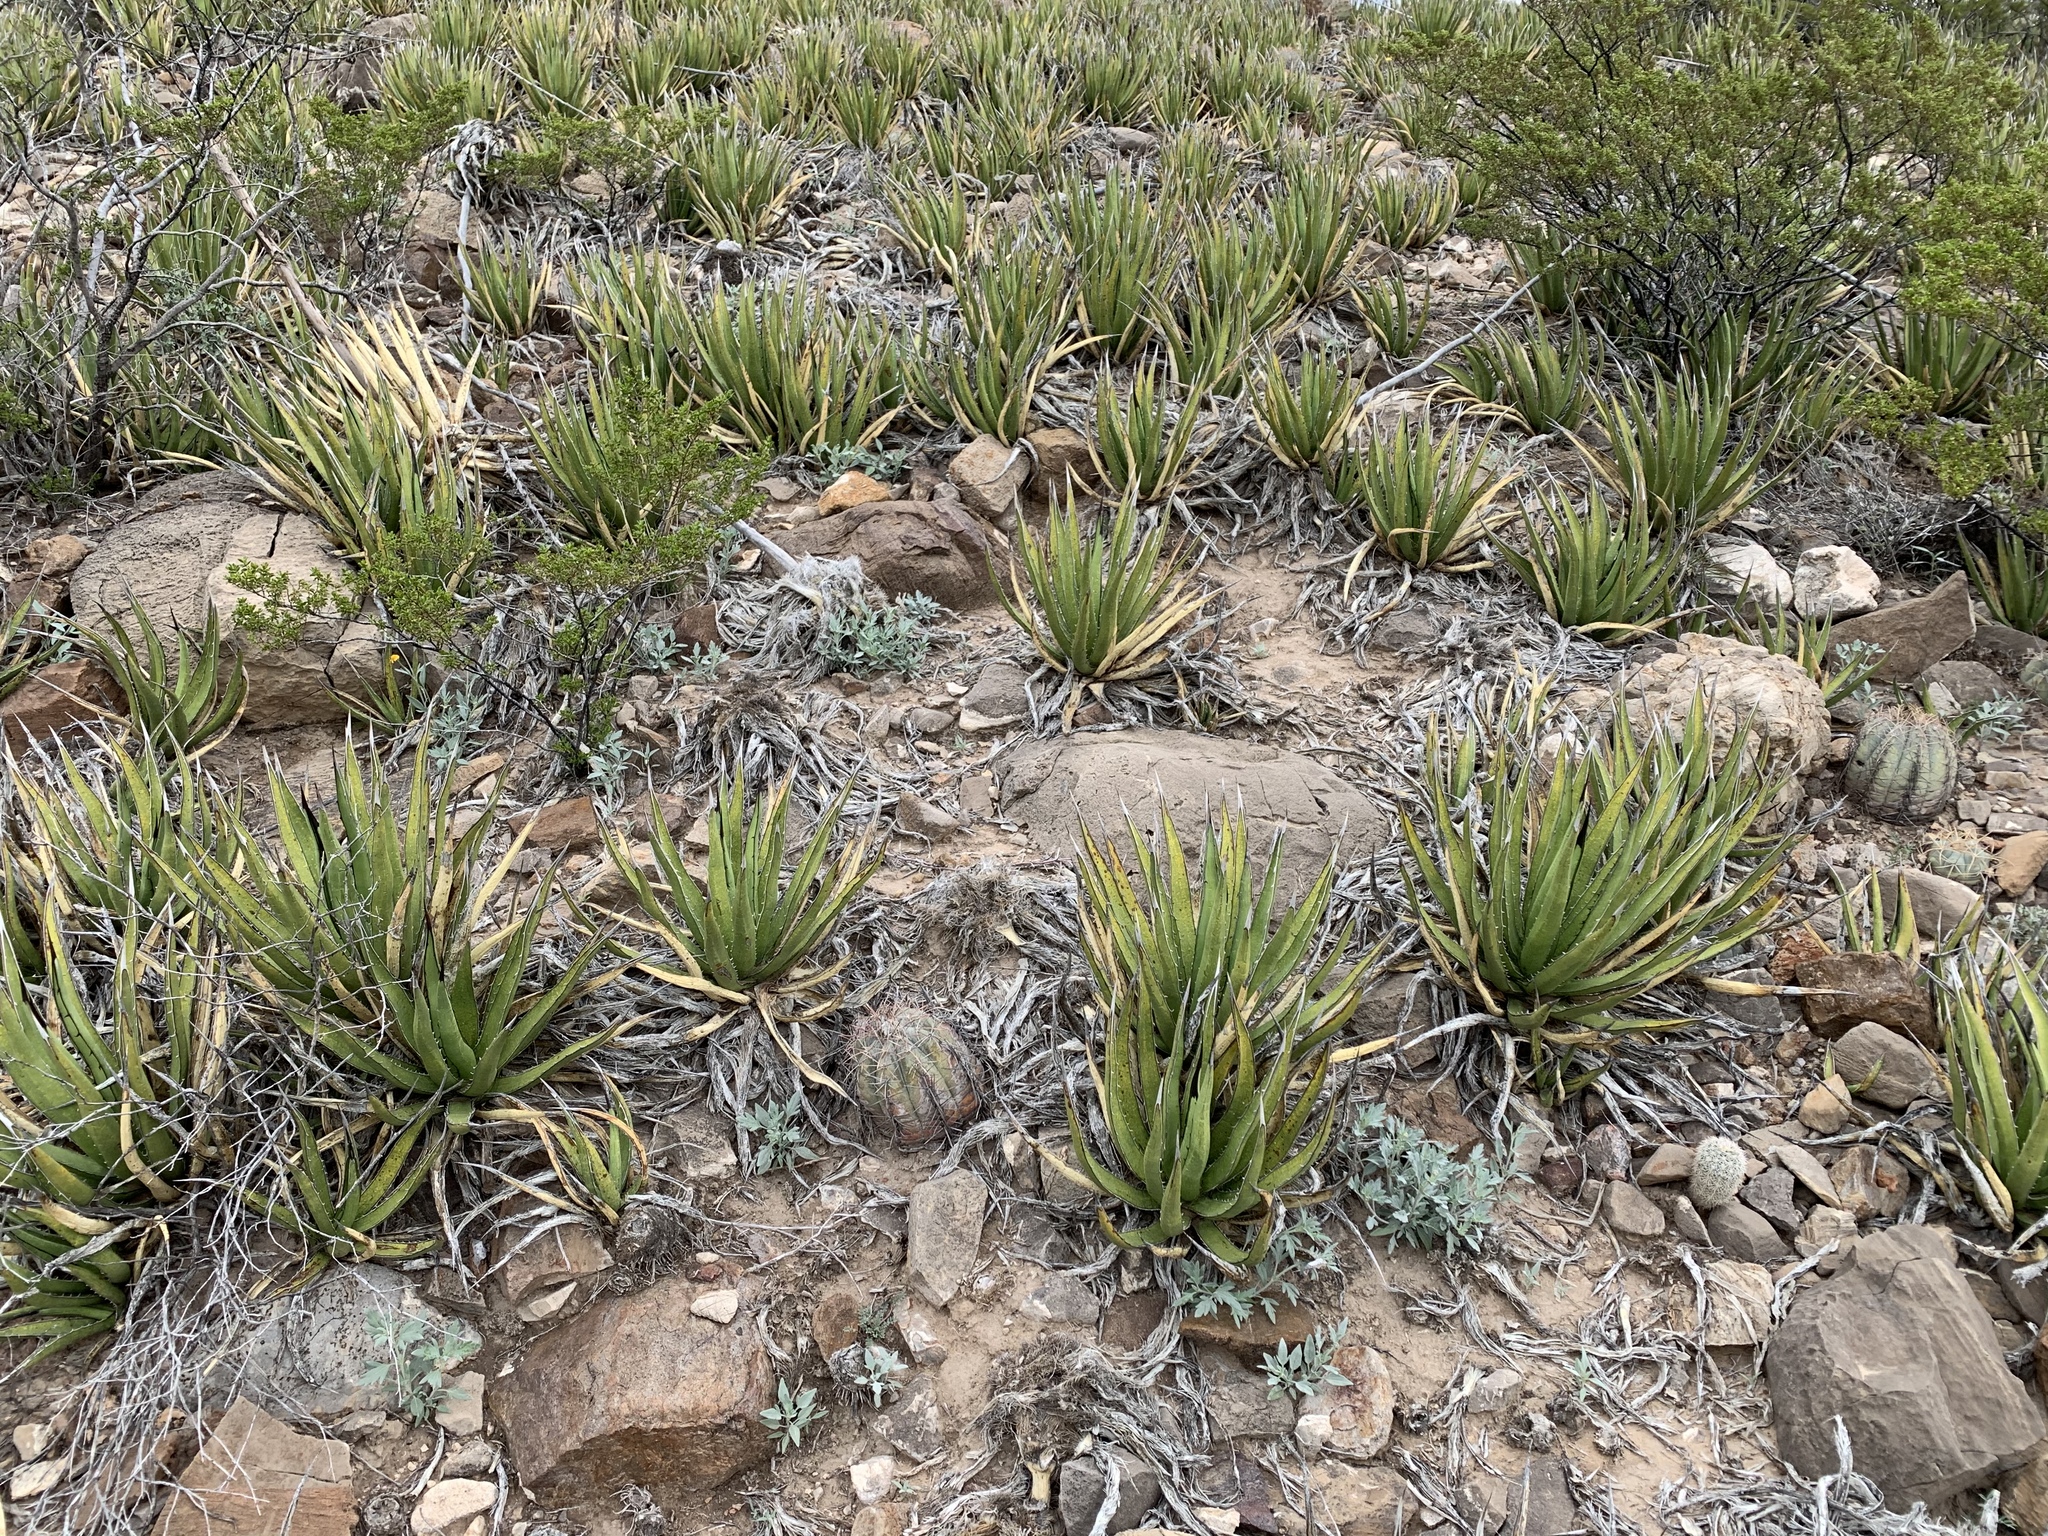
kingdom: Plantae
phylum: Tracheophyta
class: Liliopsida
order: Asparagales
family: Asparagaceae
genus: Agave
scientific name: Agave lechuguilla
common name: Lecheguilla agave
